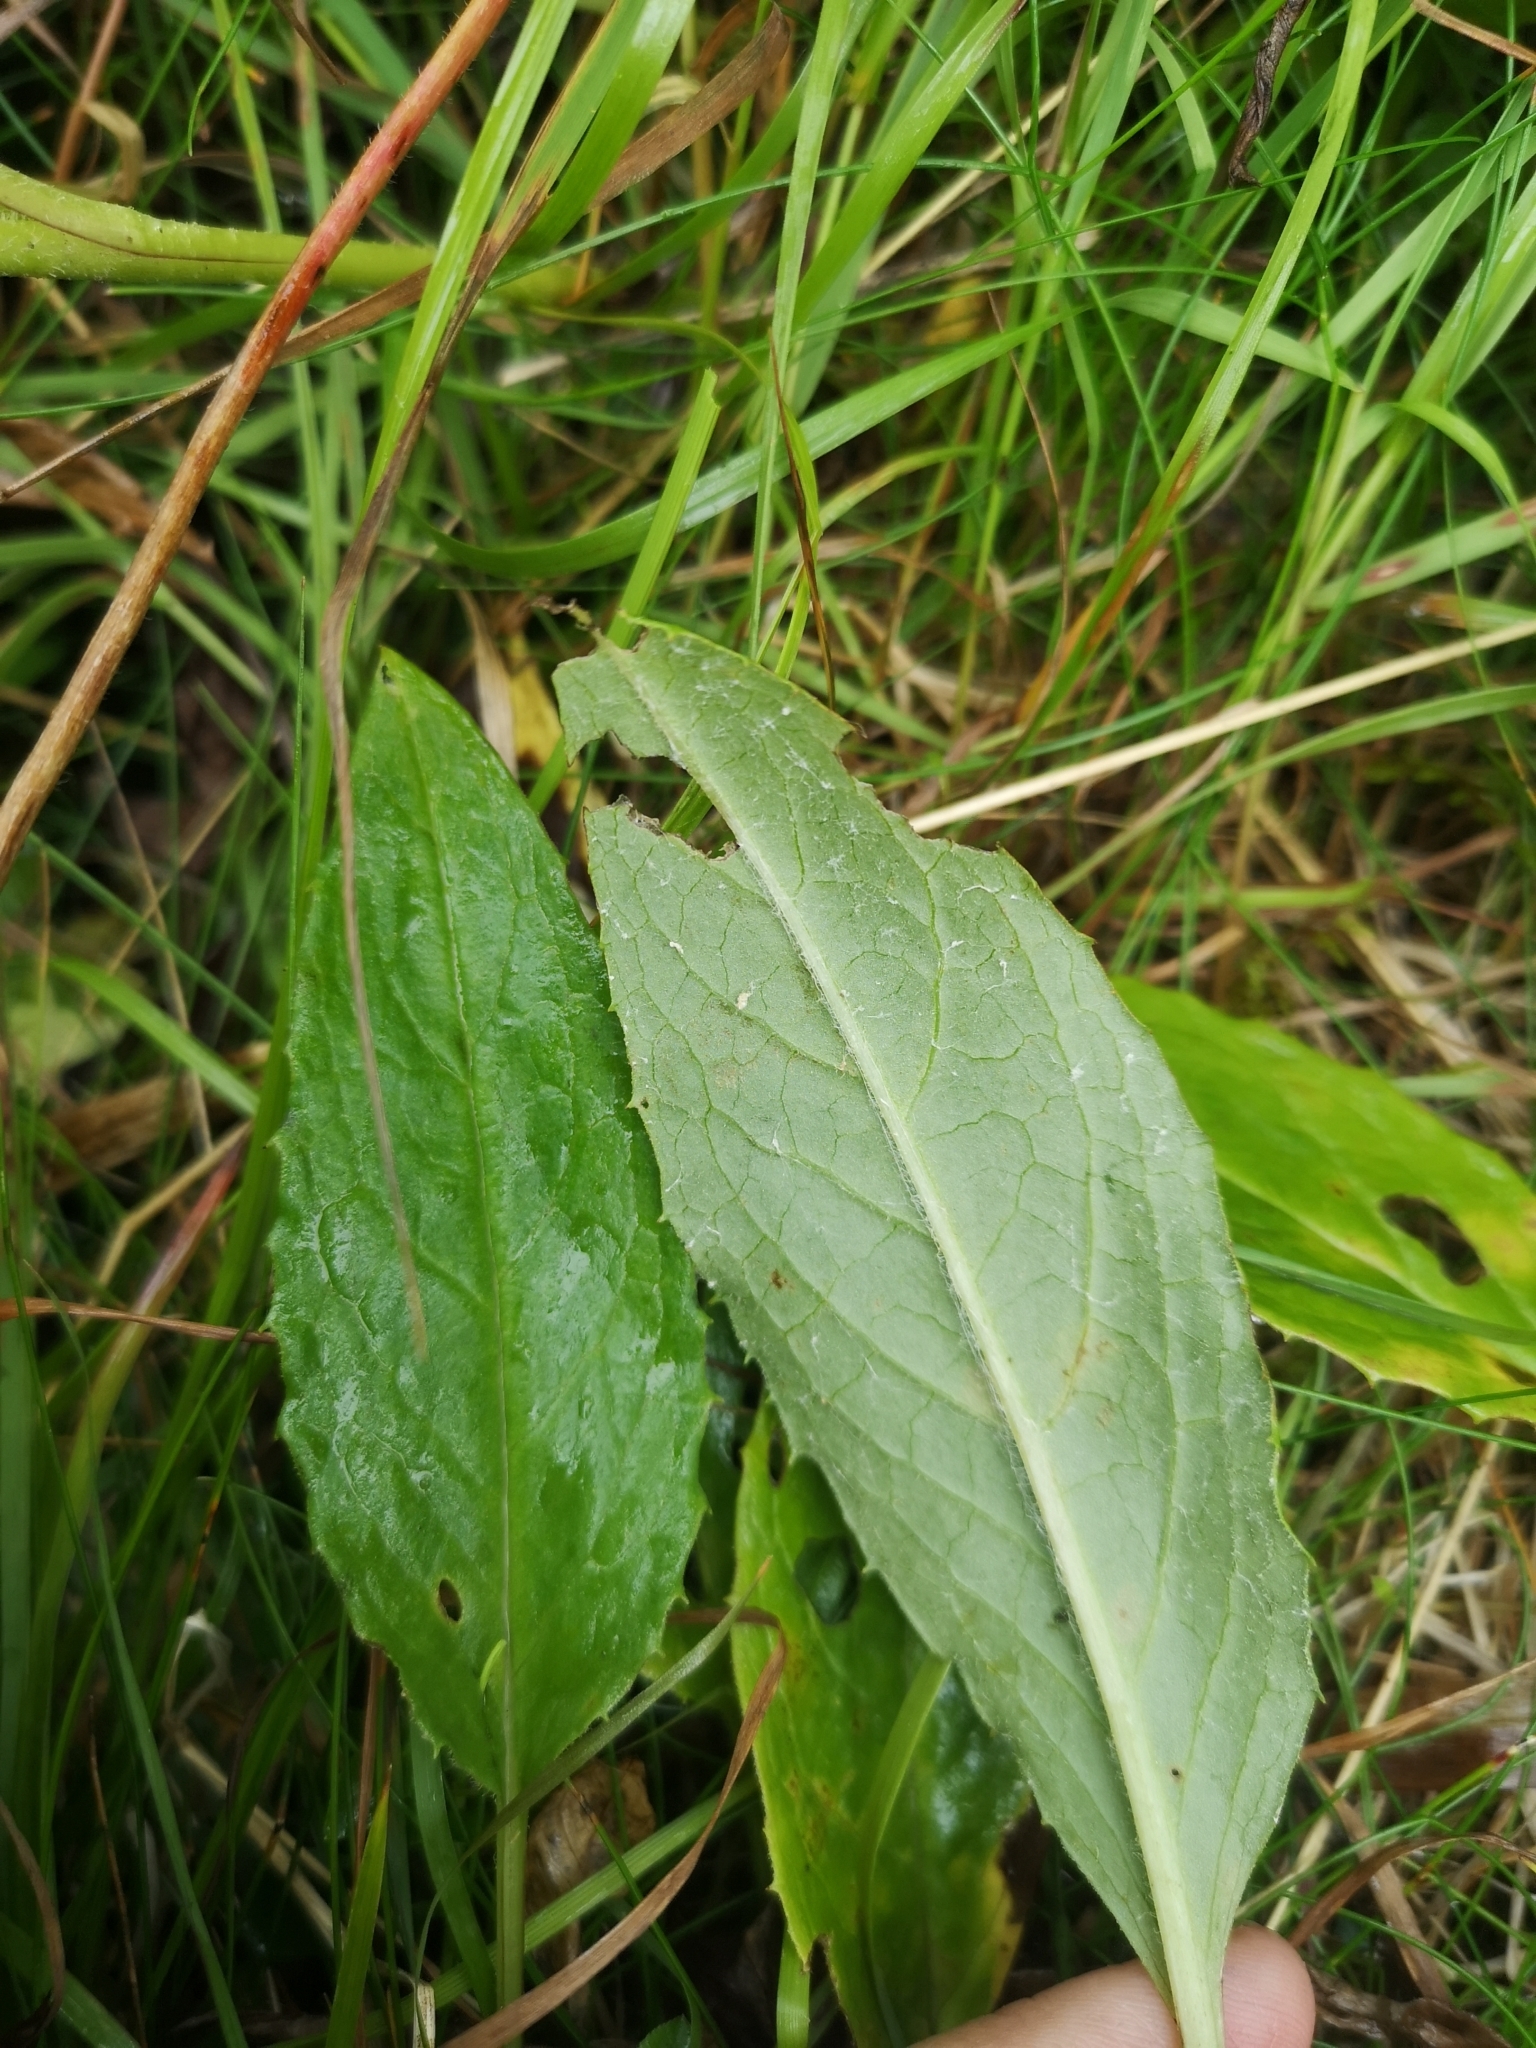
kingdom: Plantae
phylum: Tracheophyta
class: Magnoliopsida
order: Asterales
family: Asteraceae
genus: Saussurea
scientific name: Saussurea alpina
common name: Alpine saw-wort
